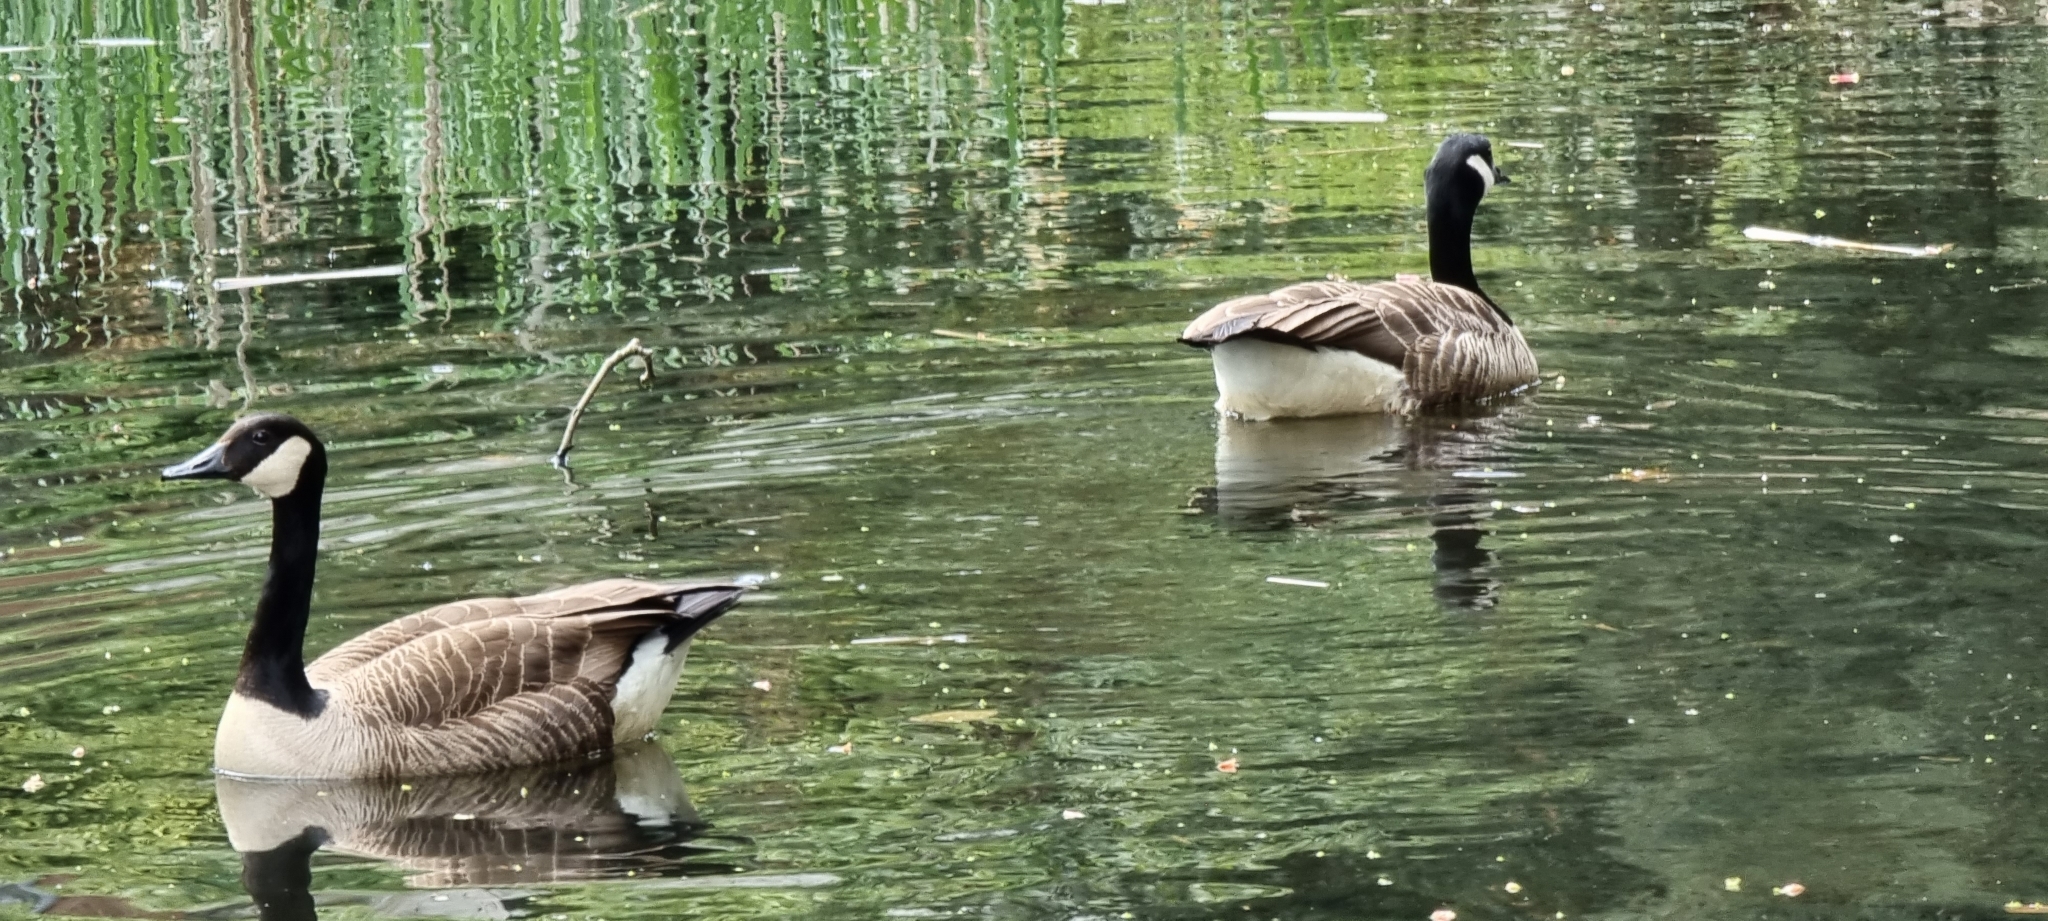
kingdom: Animalia
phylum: Chordata
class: Aves
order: Anseriformes
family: Anatidae
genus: Branta
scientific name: Branta canadensis
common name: Canada goose
